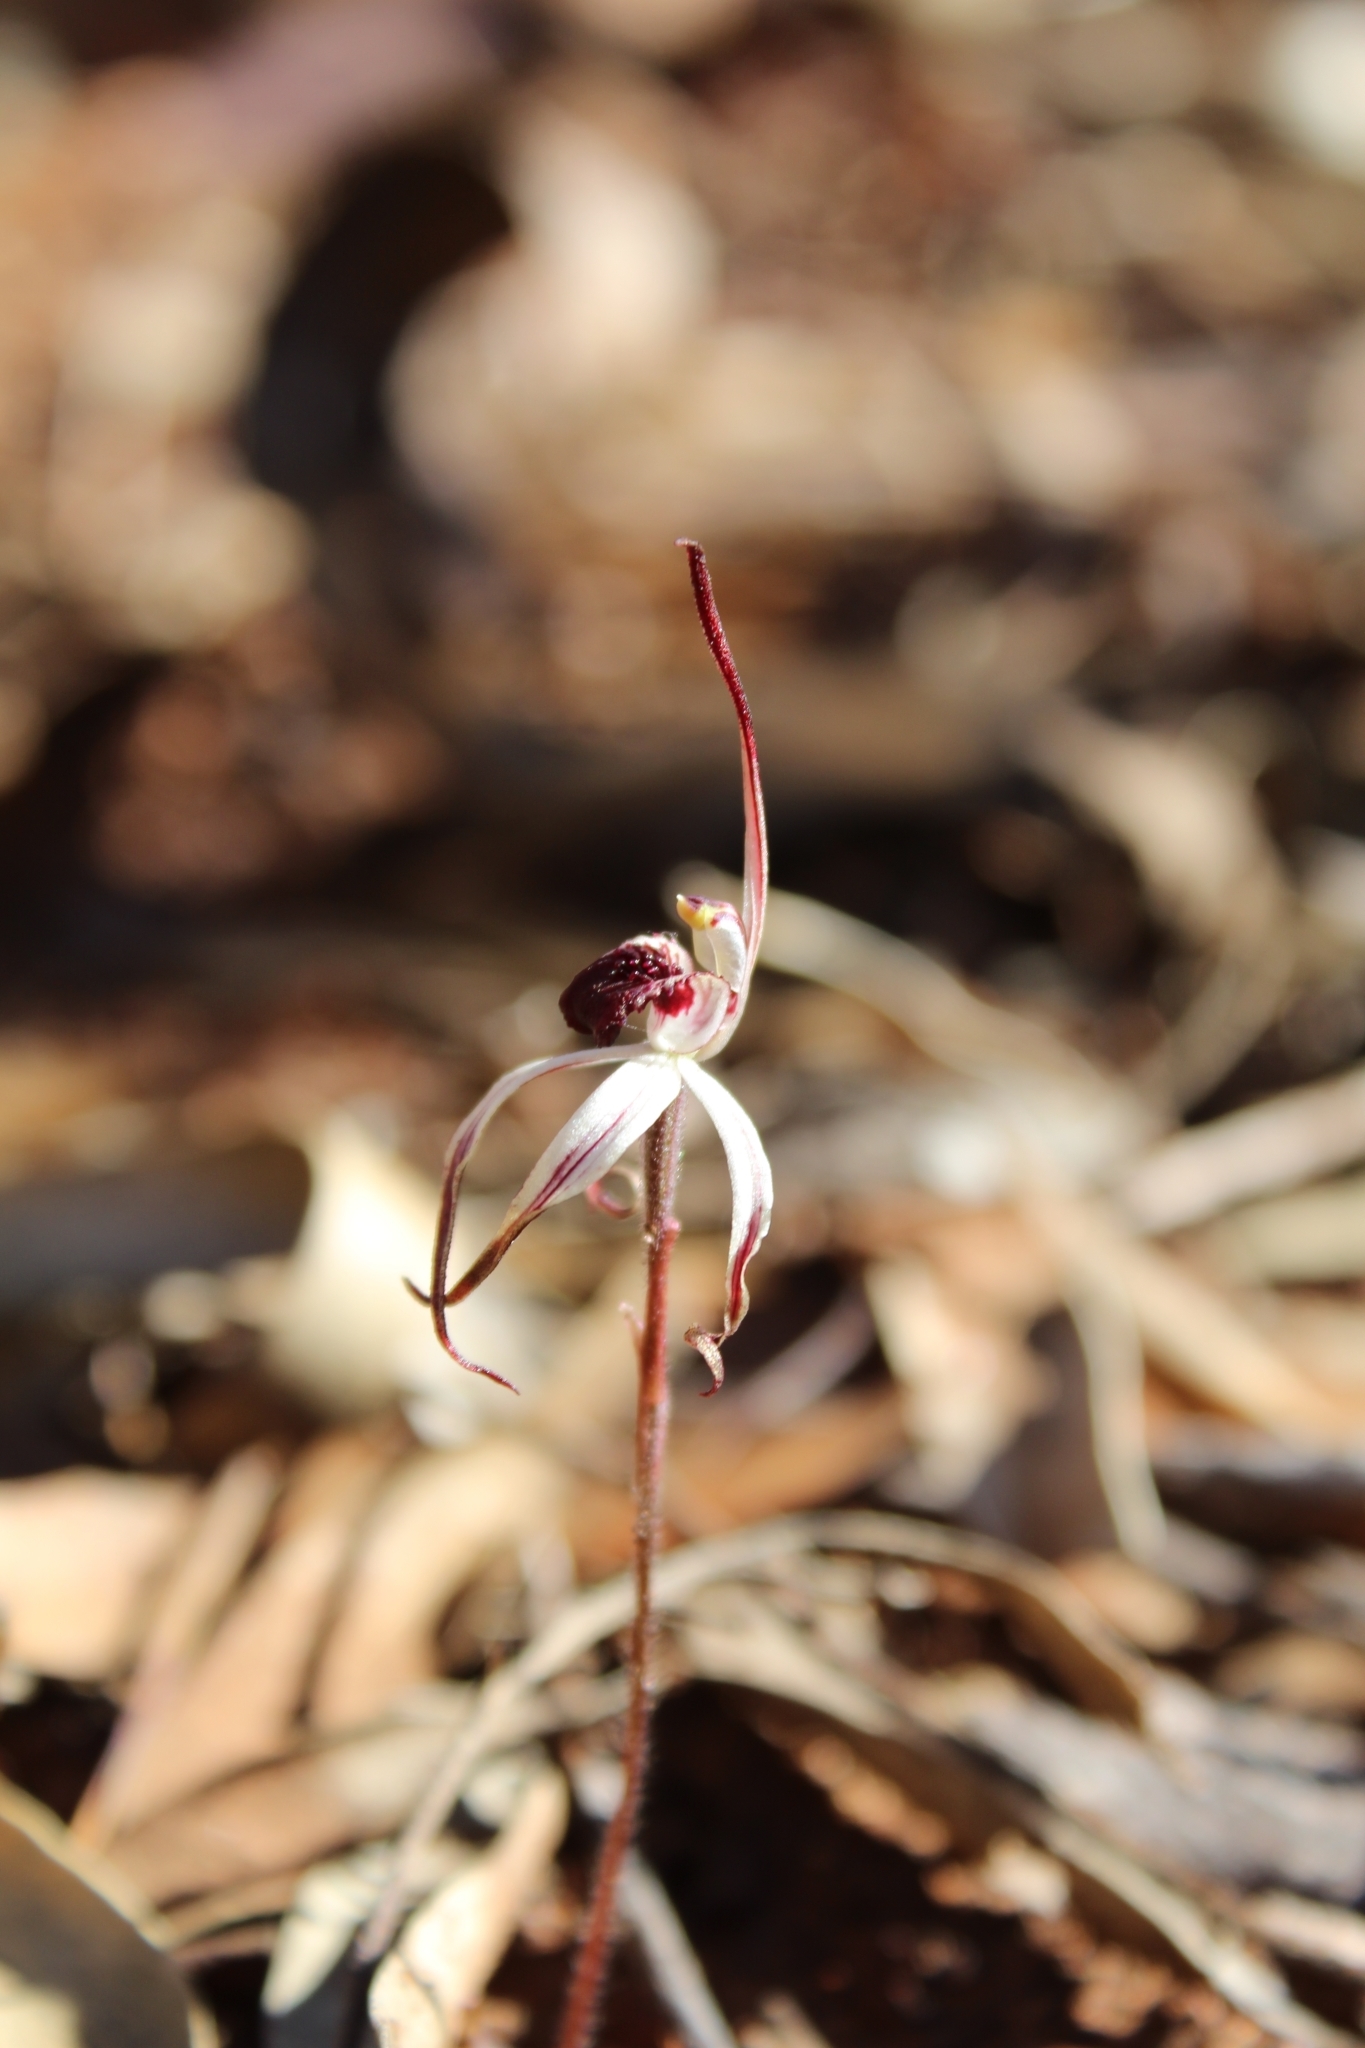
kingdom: Plantae
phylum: Tracheophyta
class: Liliopsida
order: Asparagales
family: Orchidaceae
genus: Caladenia
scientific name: Caladenia drummondii
